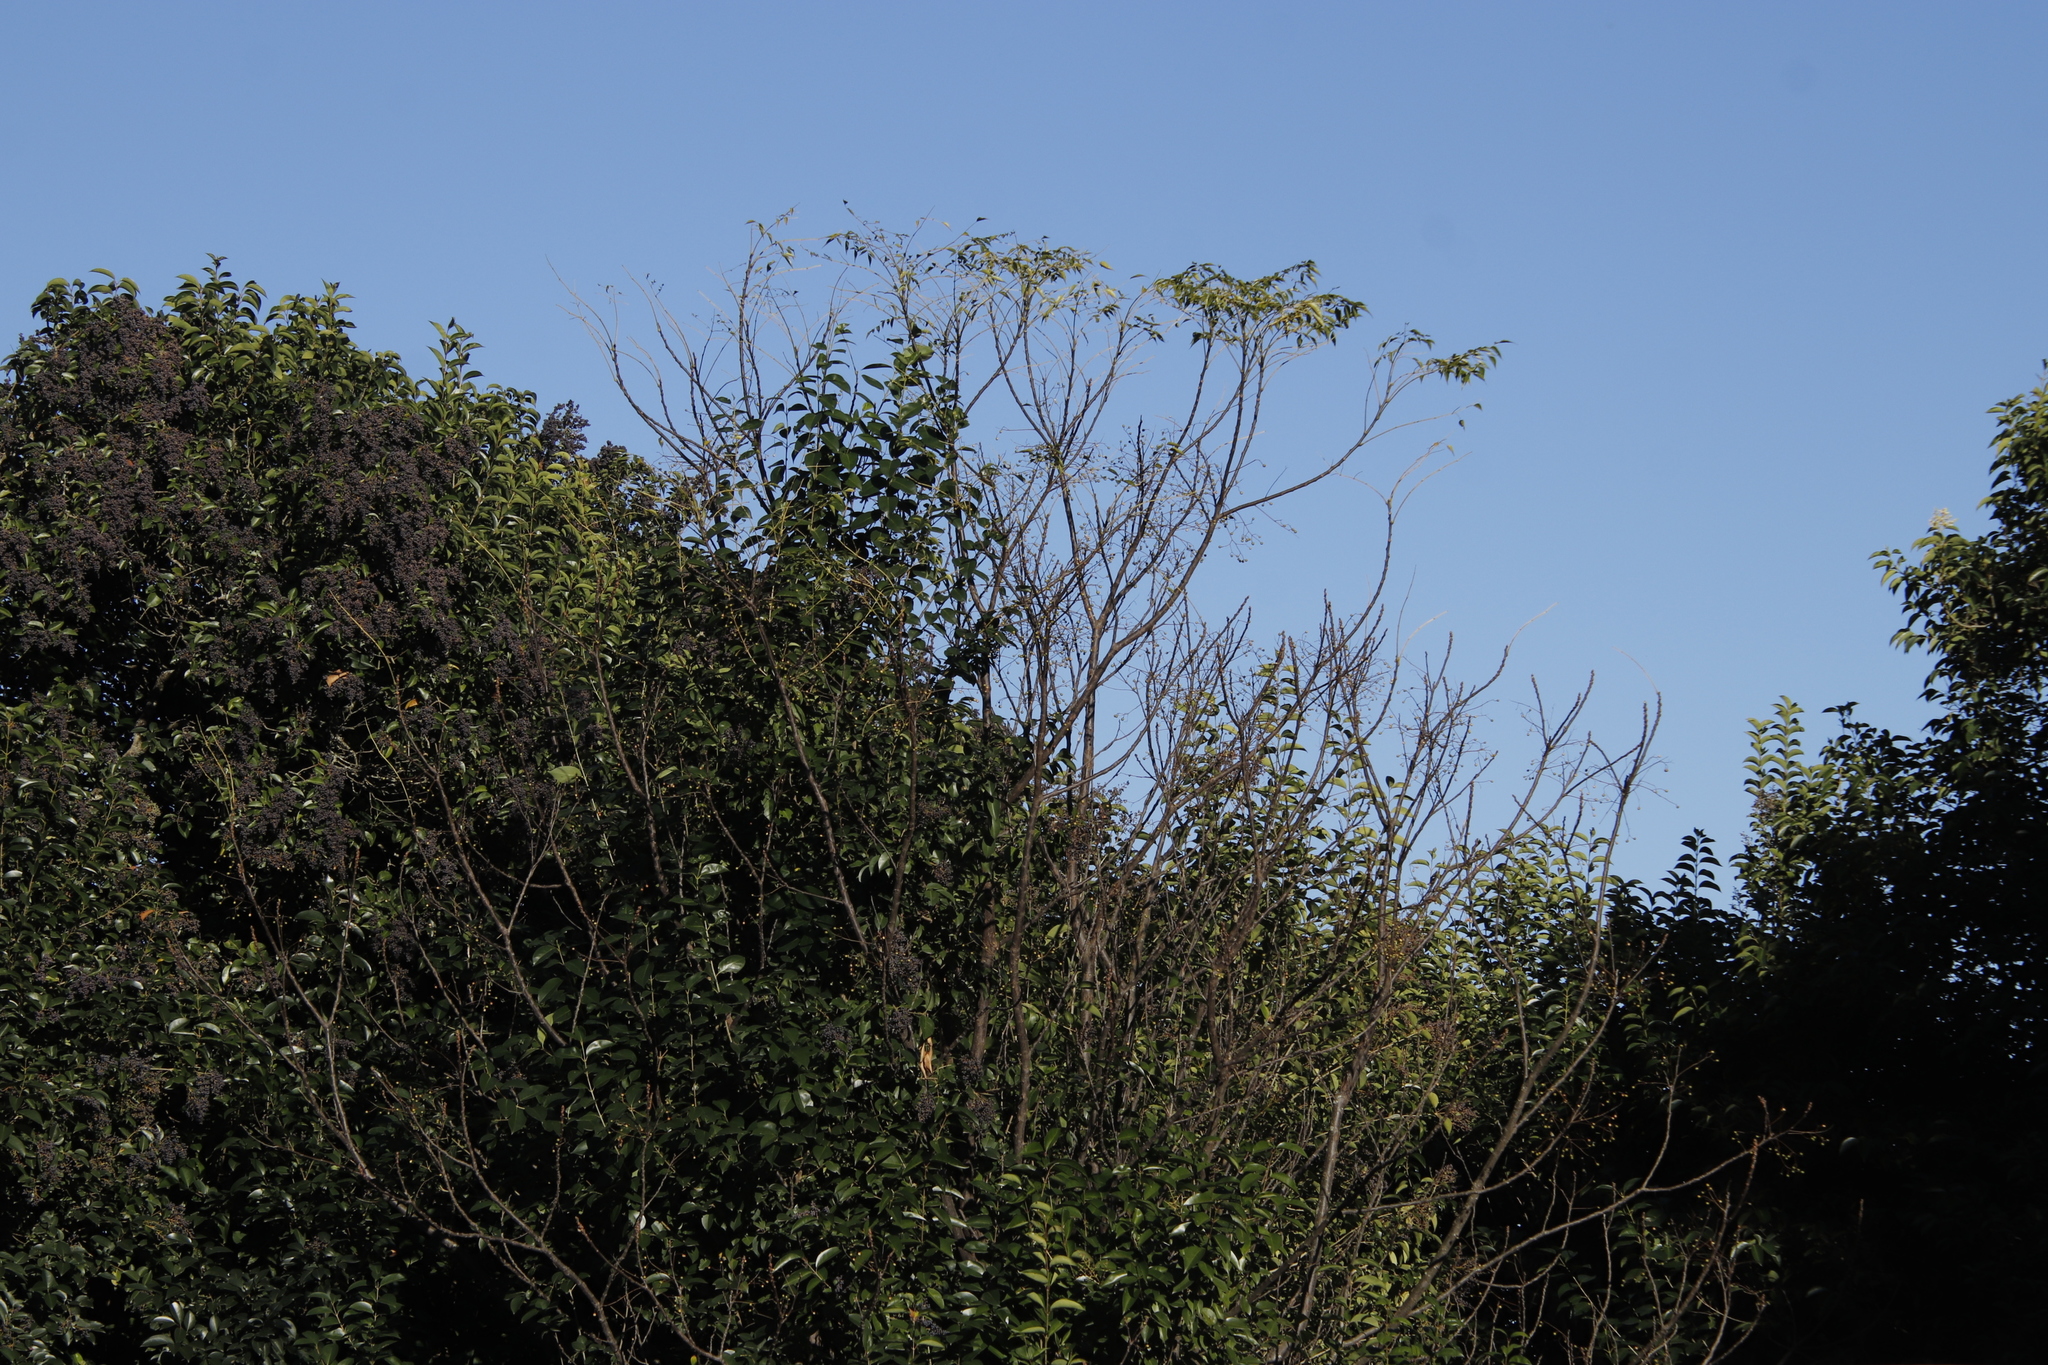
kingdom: Plantae
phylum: Tracheophyta
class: Magnoliopsida
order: Sapindales
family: Meliaceae
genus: Melia
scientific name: Melia azedarach
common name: Chinaberrytree
